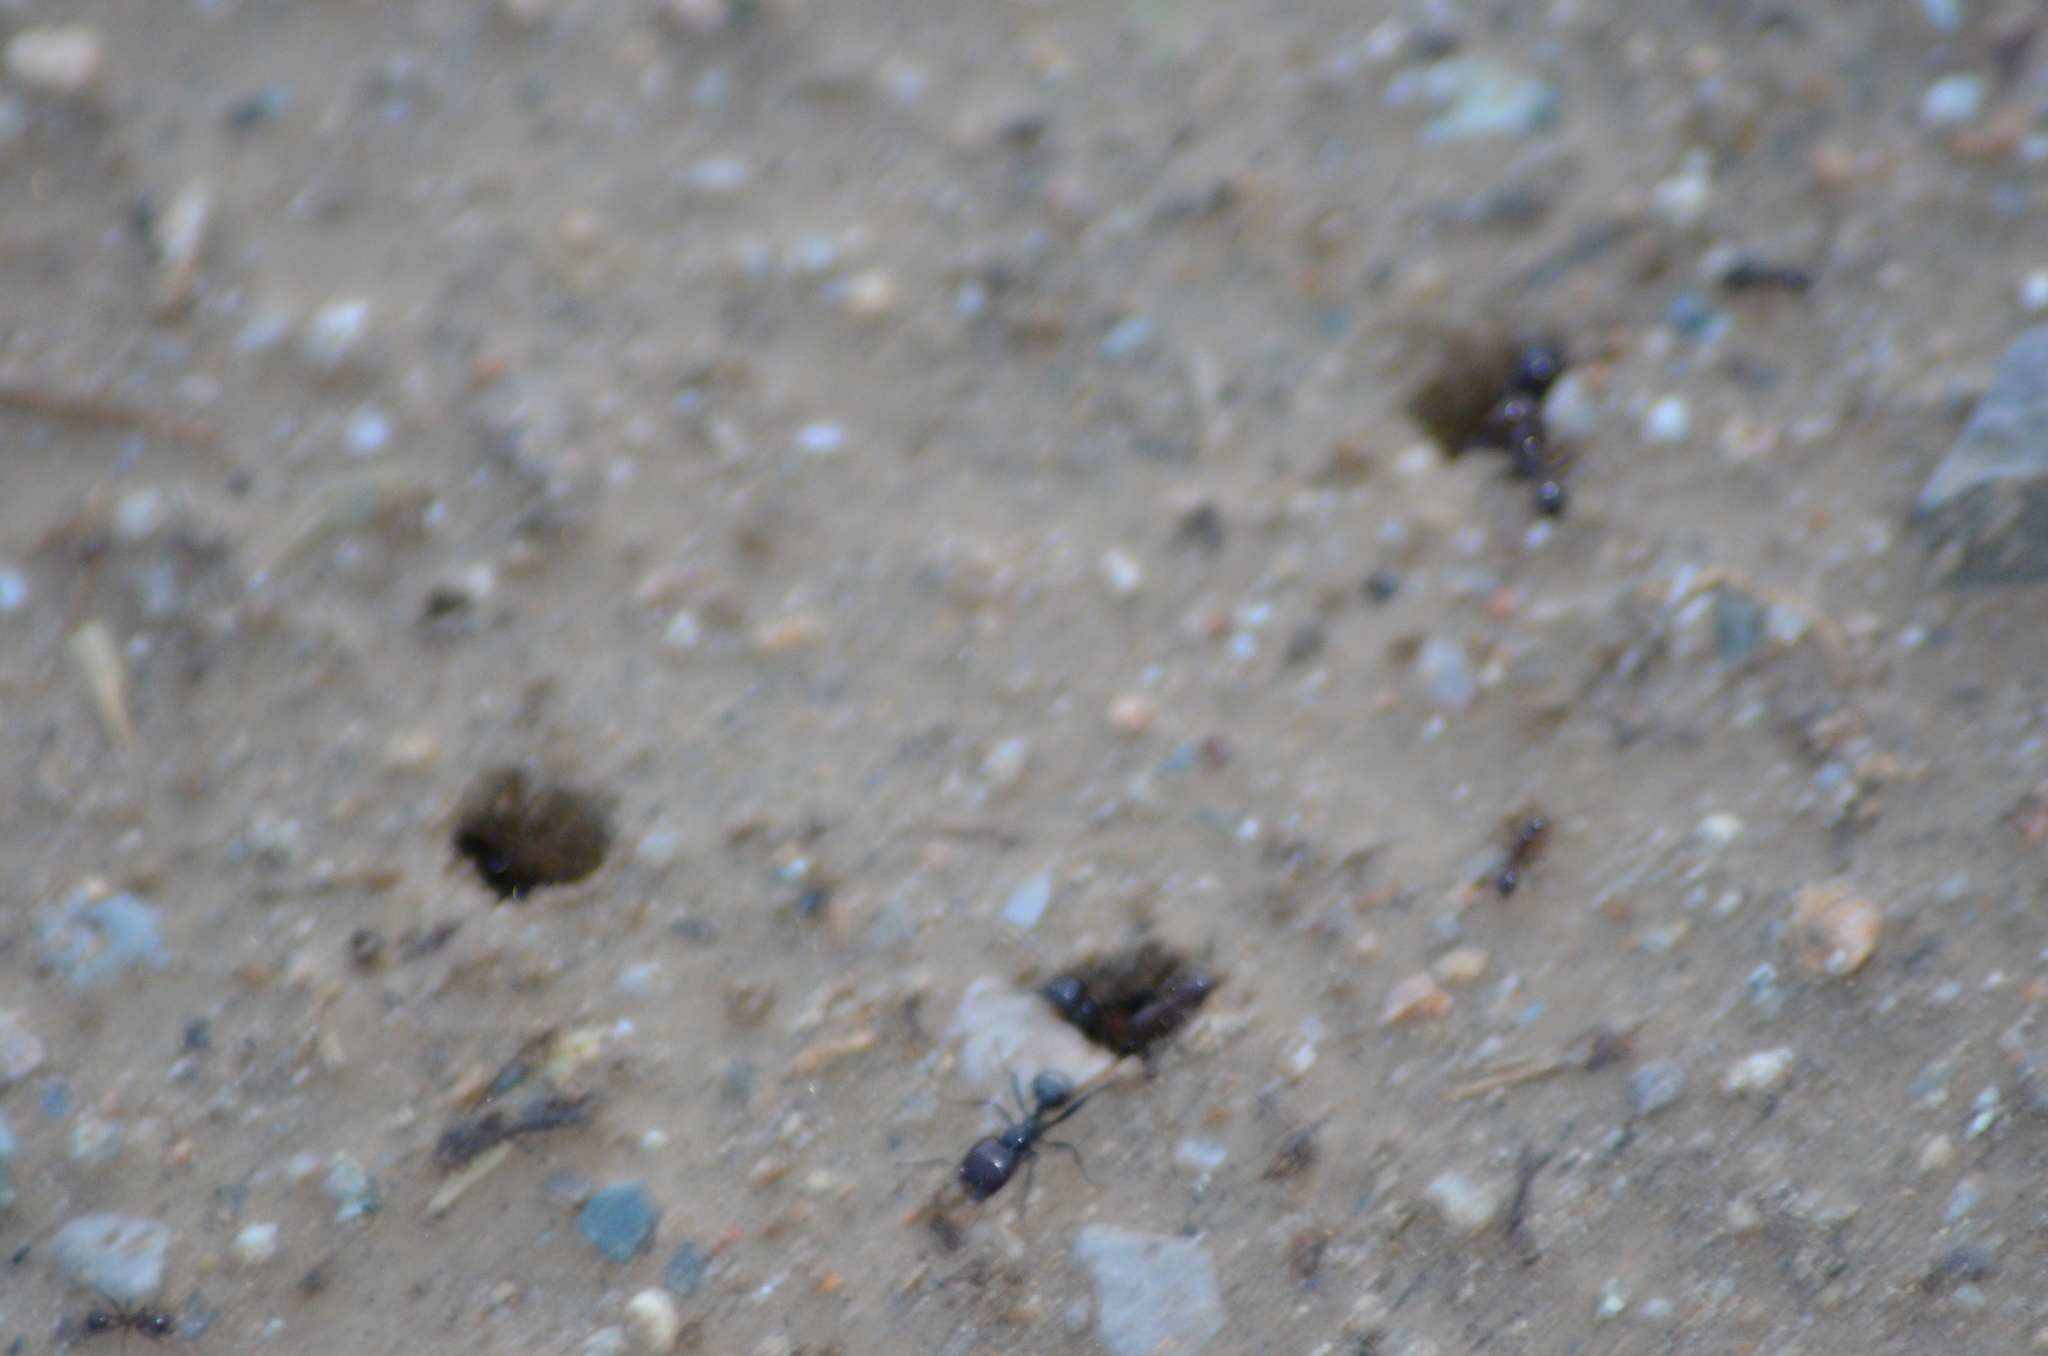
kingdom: Animalia
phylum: Arthropoda
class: Insecta
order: Hymenoptera
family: Formicidae
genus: Messor
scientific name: Messor barbarus
